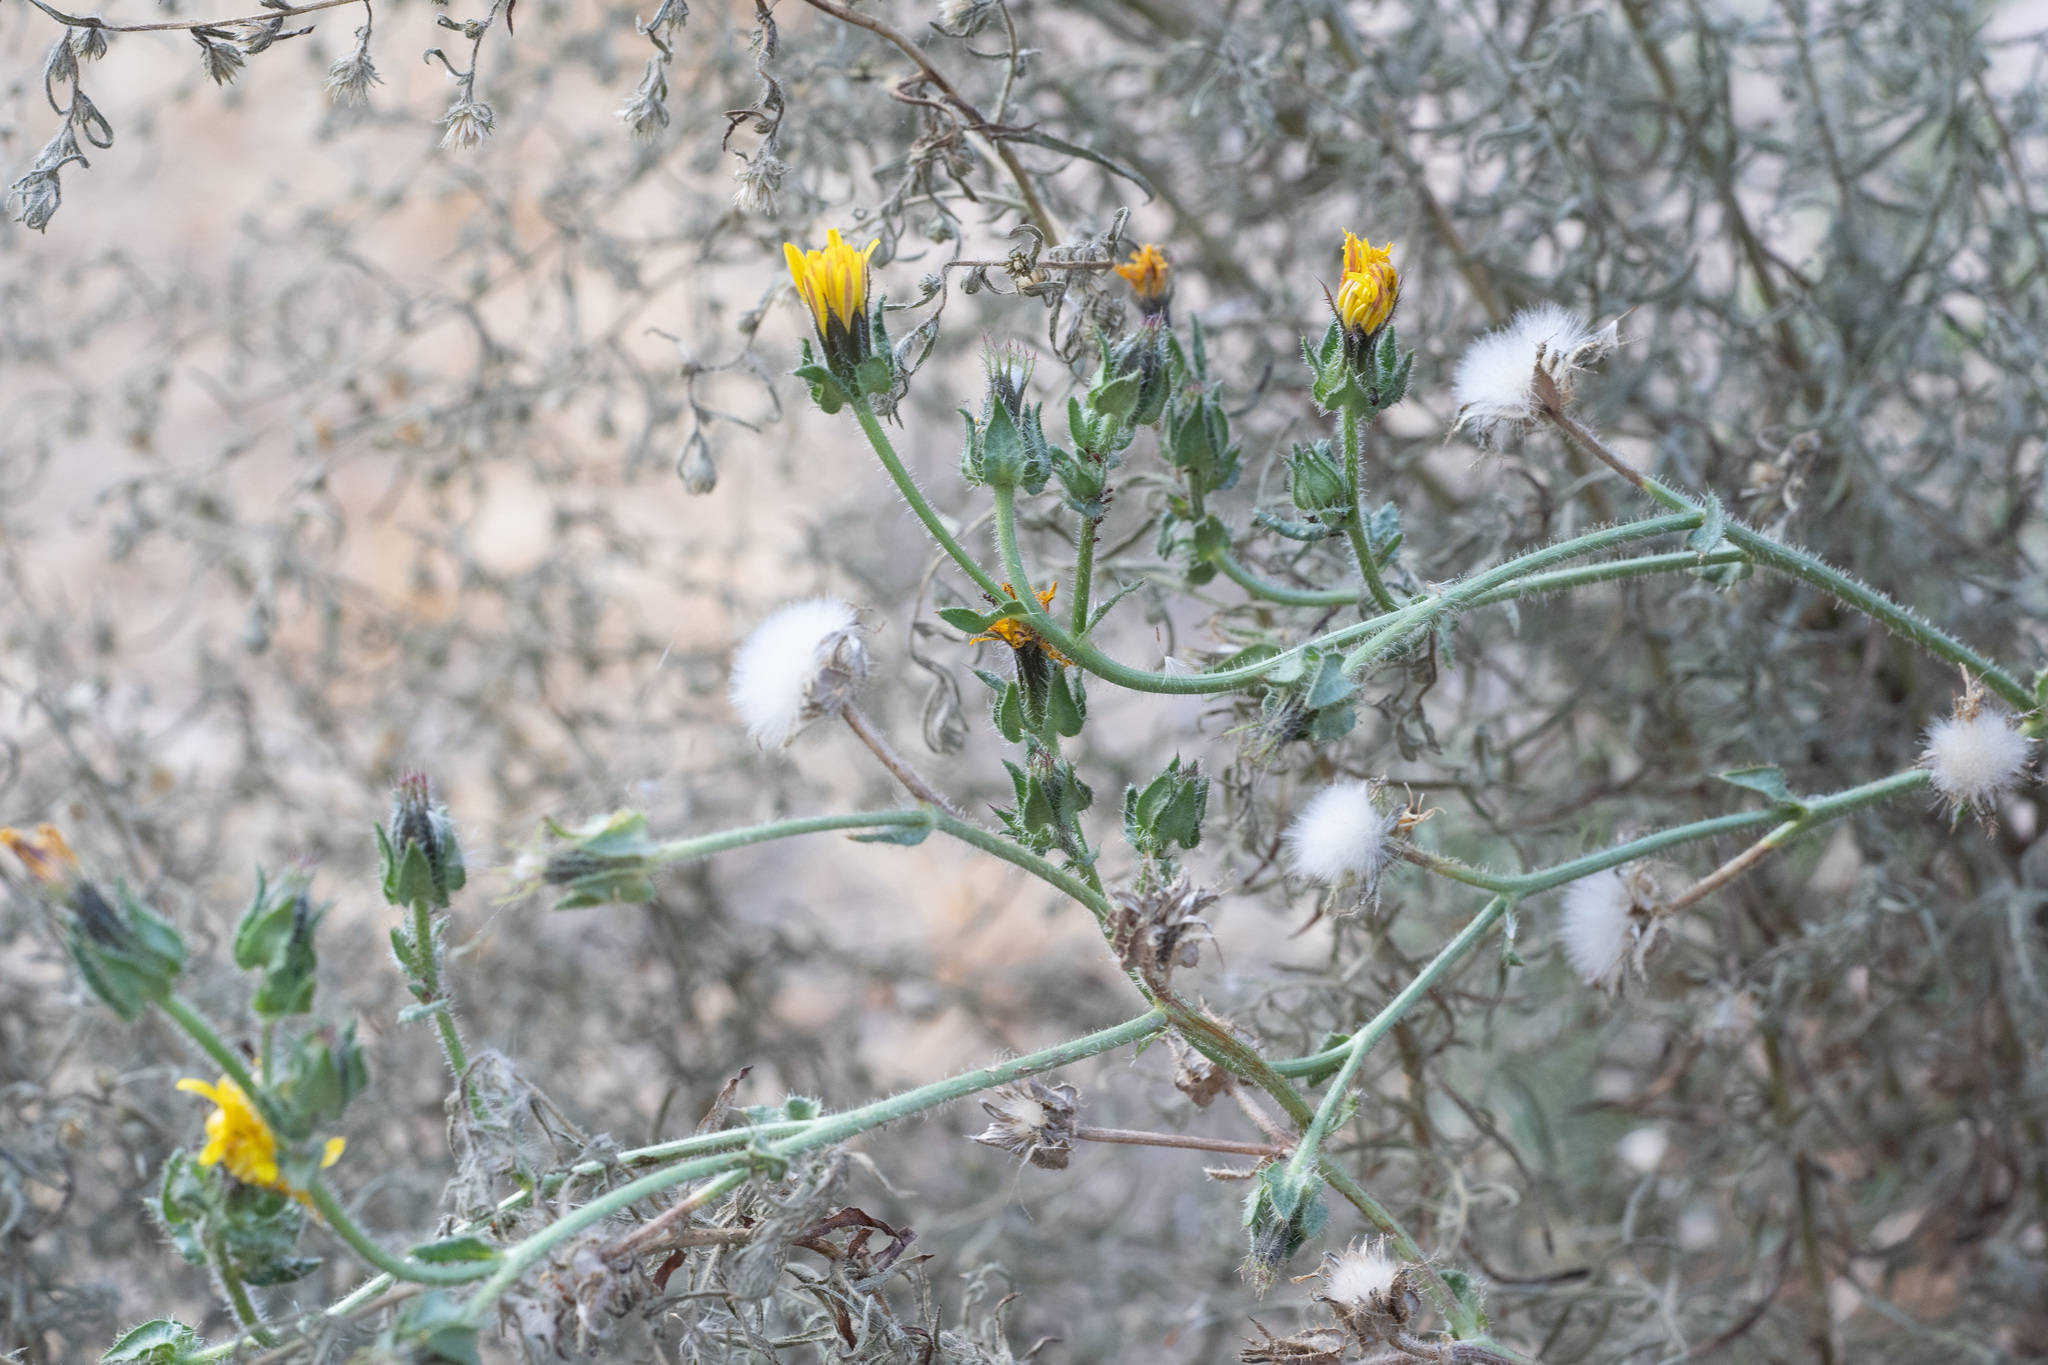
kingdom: Plantae
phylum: Tracheophyta
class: Magnoliopsida
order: Asterales
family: Asteraceae
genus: Helminthotheca
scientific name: Helminthotheca echioides
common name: Ox-tongue
